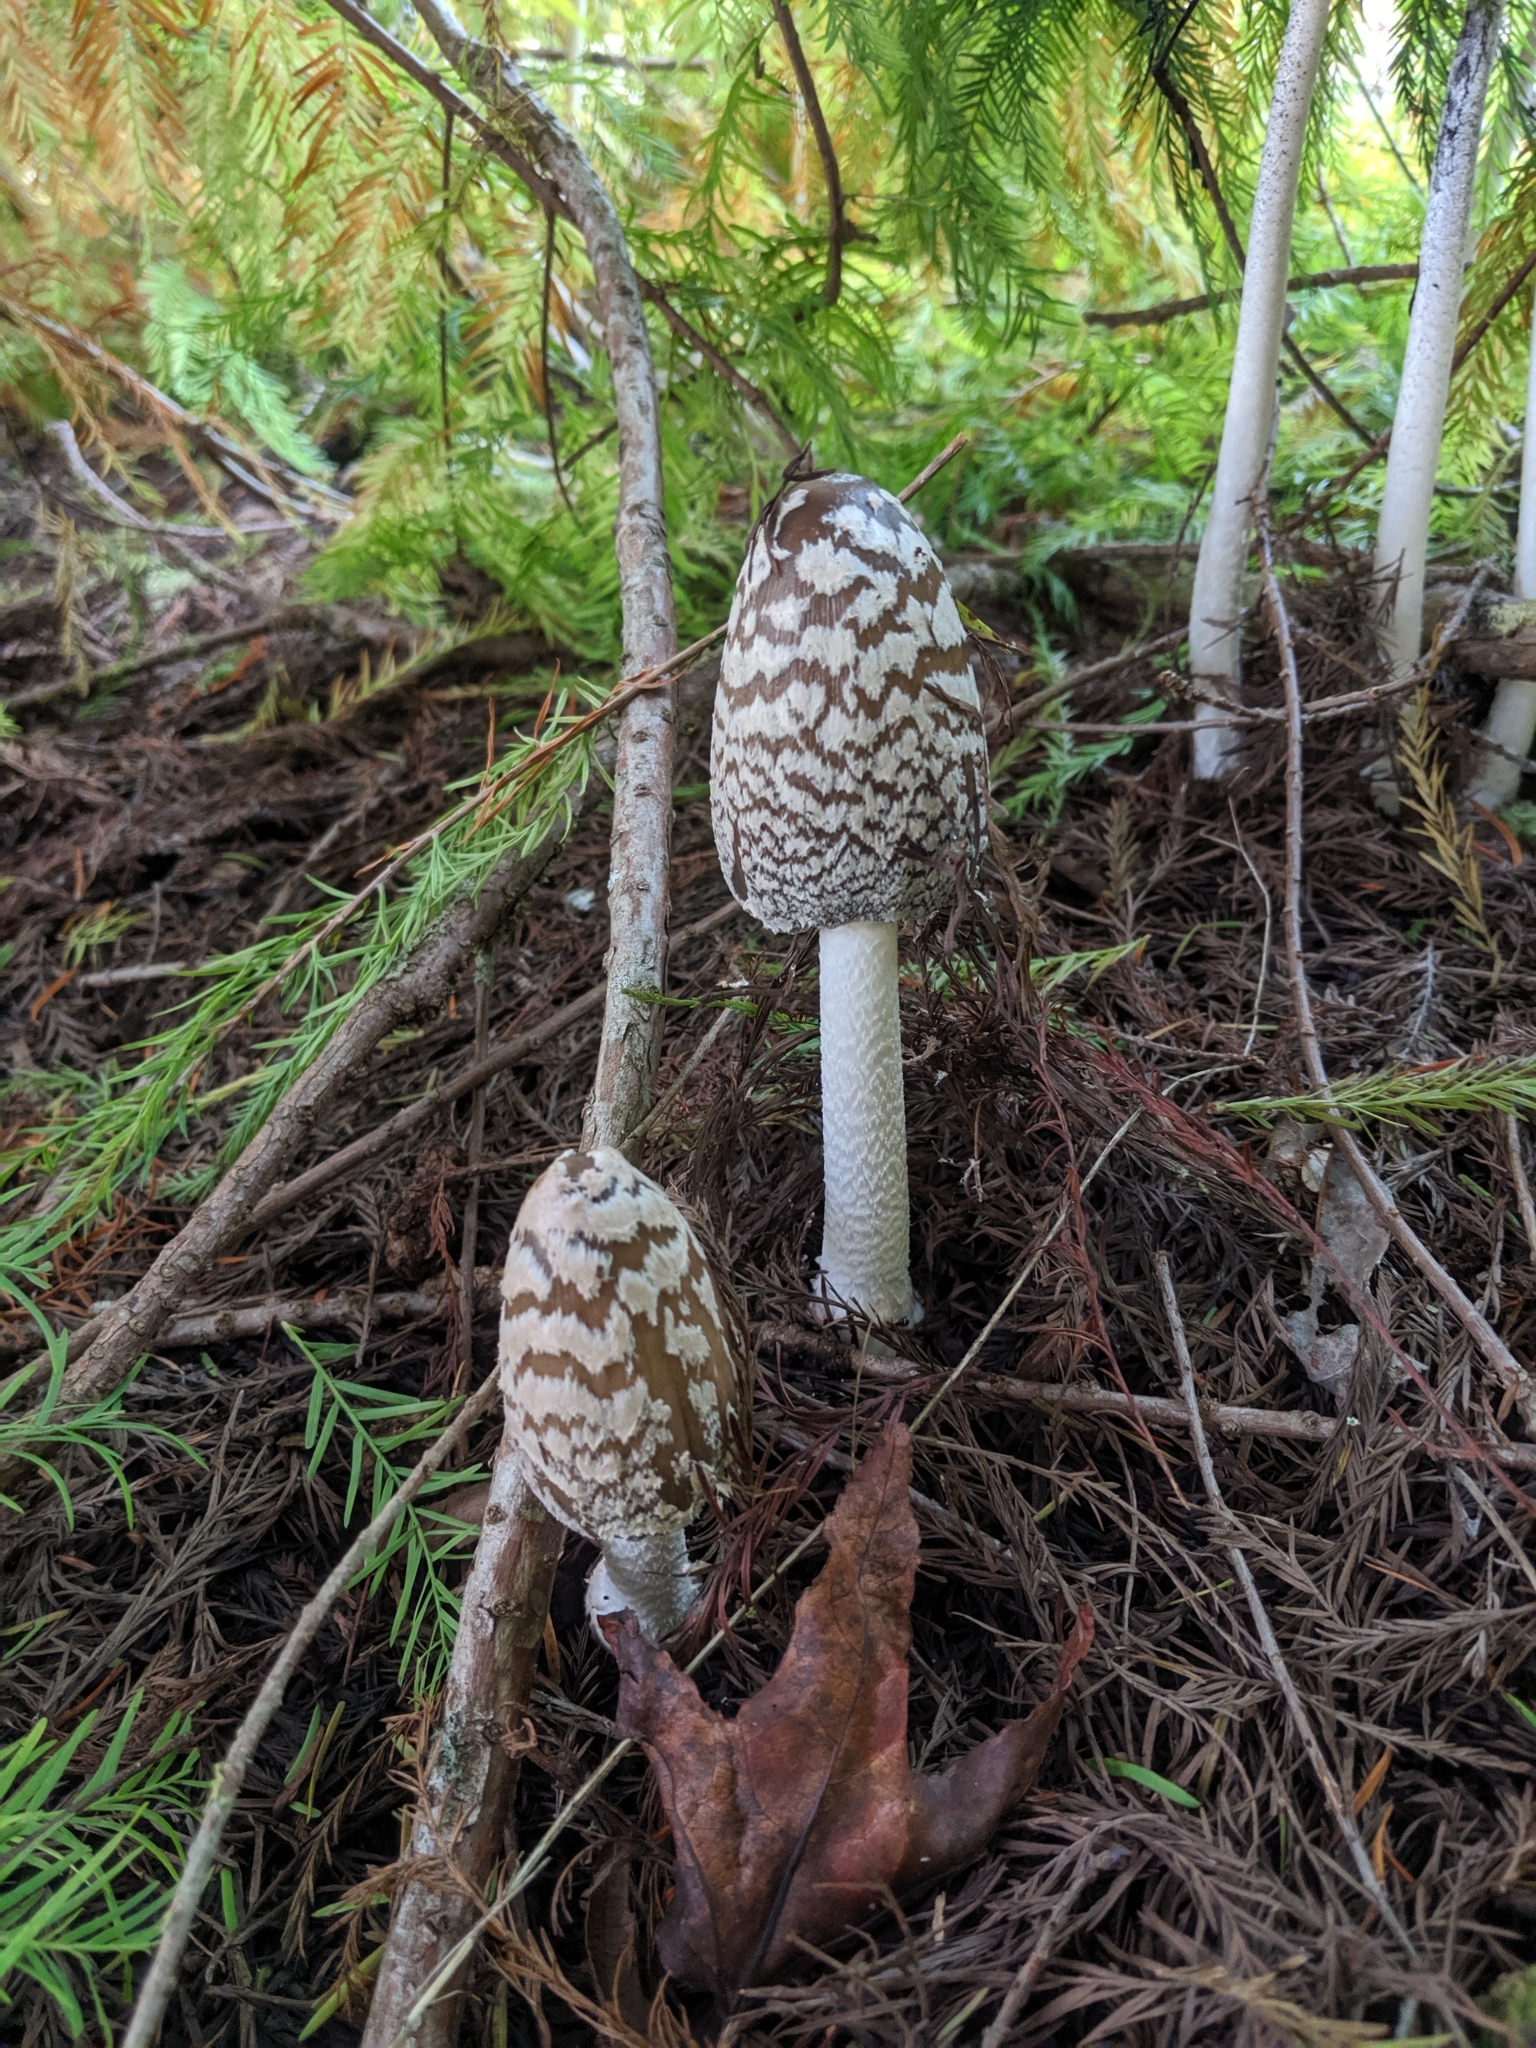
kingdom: Fungi
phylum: Basidiomycota
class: Agaricomycetes
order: Agaricales
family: Psathyrellaceae
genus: Coprinopsis
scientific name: Coprinopsis picacea
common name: Magpie inkcap
